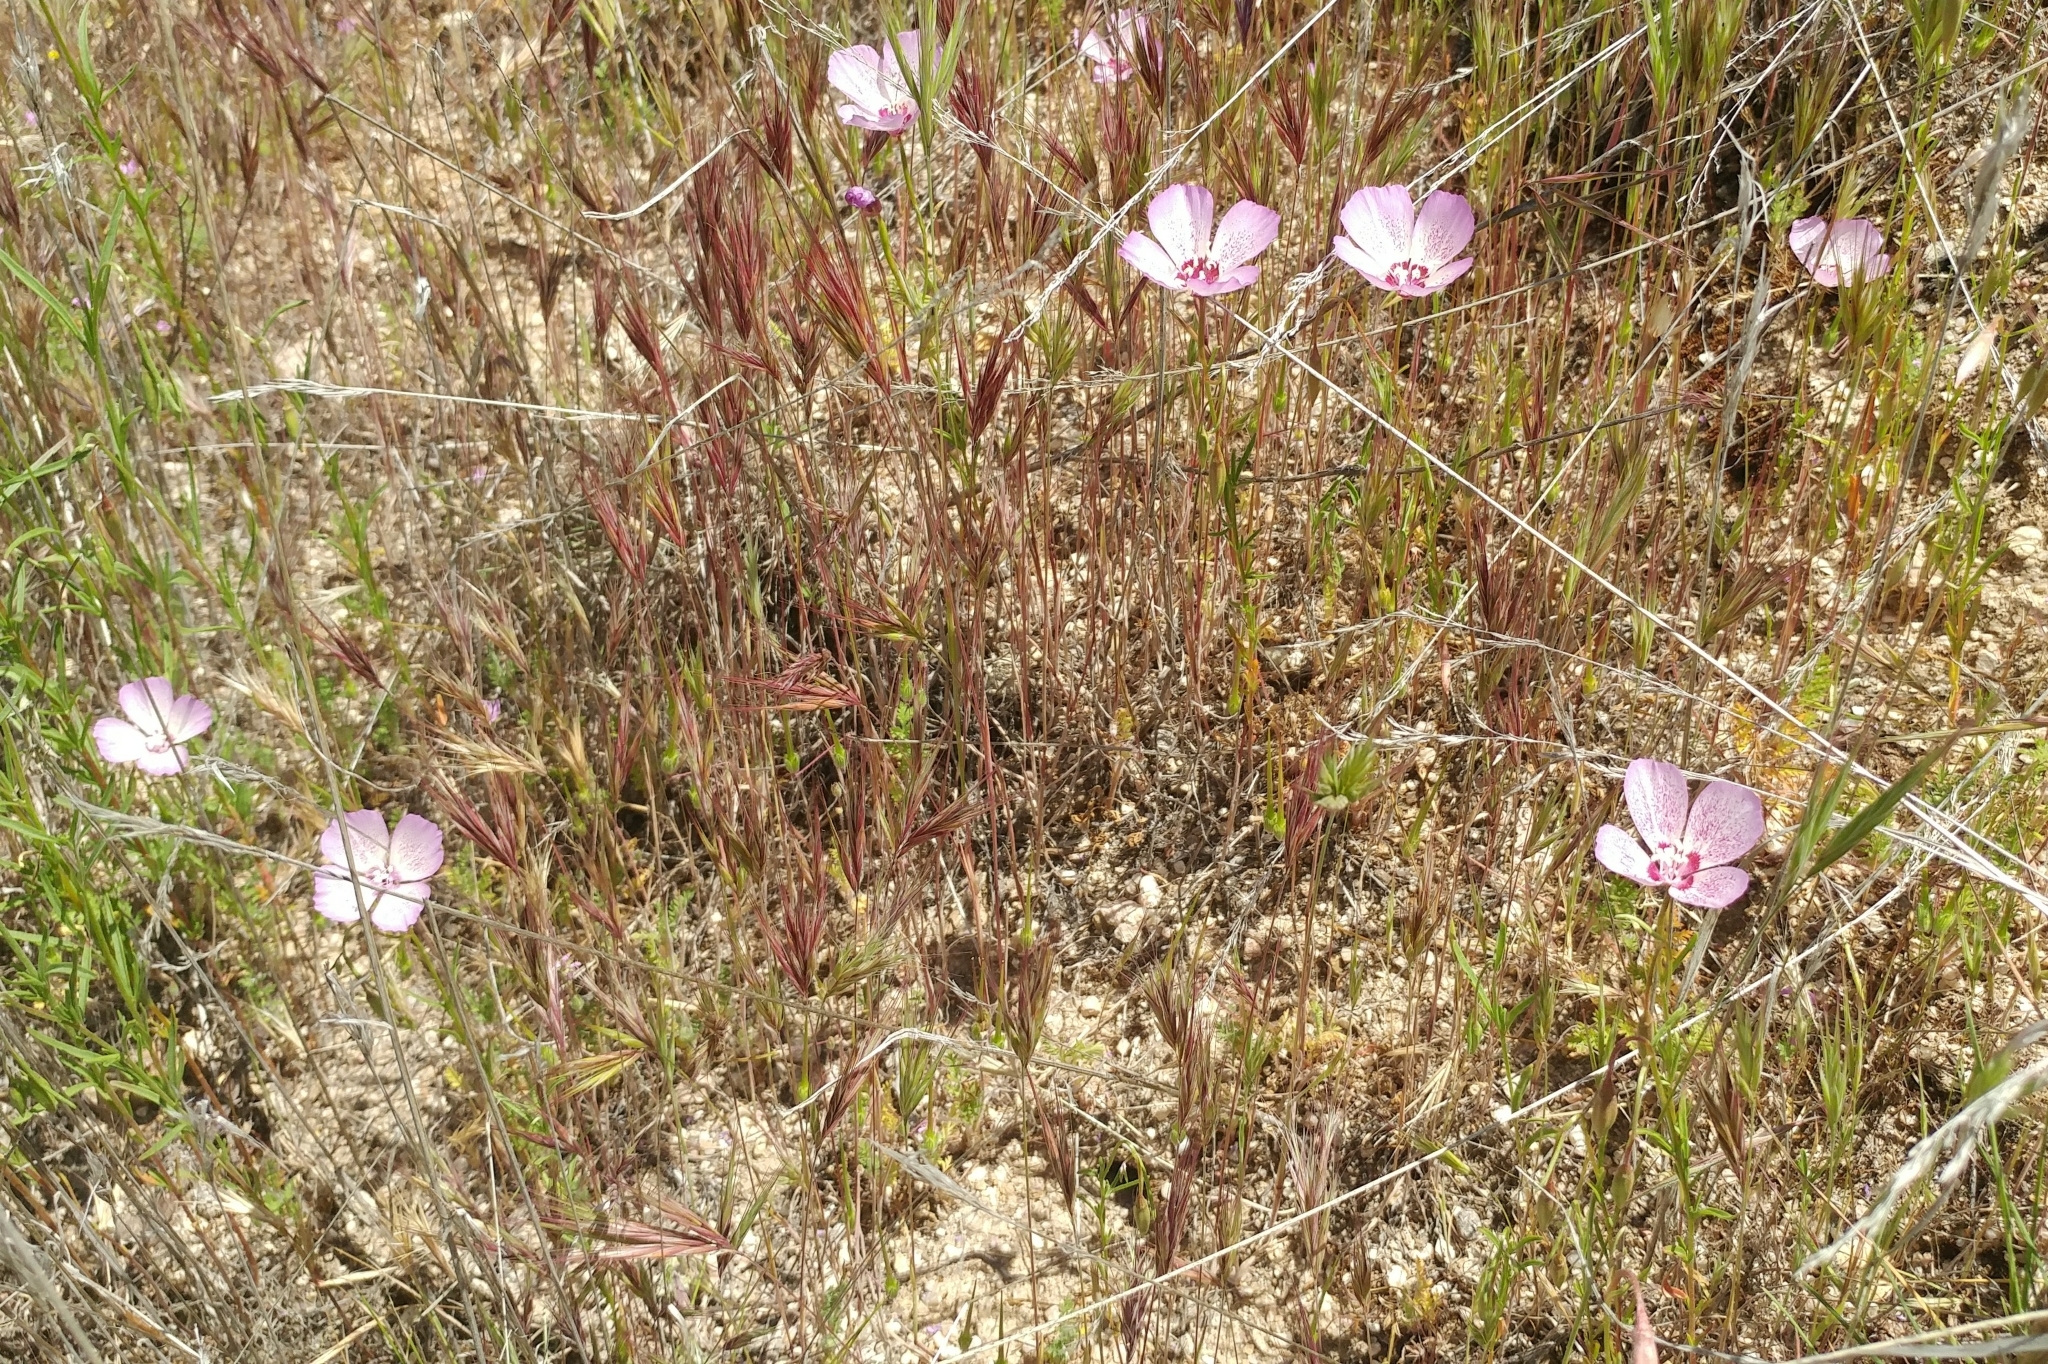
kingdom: Plantae
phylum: Tracheophyta
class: Magnoliopsida
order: Myrtales
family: Onagraceae
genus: Clarkia
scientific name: Clarkia cylindrica
